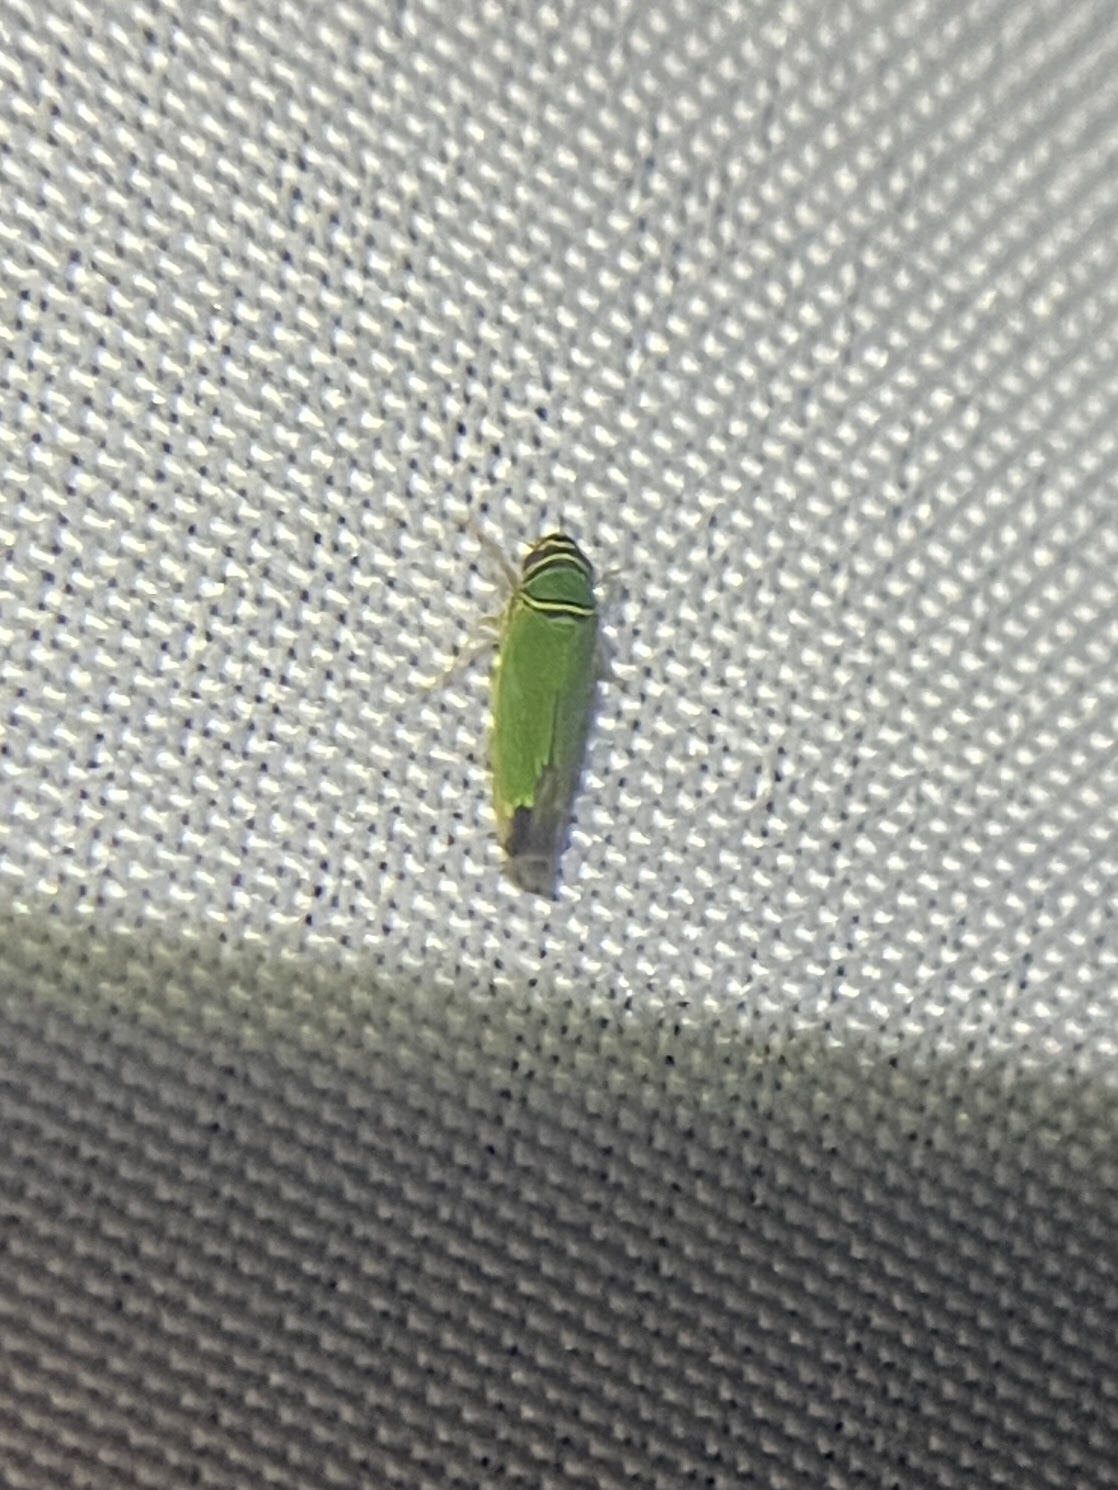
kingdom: Animalia
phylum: Arthropoda
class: Insecta
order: Hemiptera
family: Cicadellidae
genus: Tylozygus
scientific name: Tylozygus geometricus
